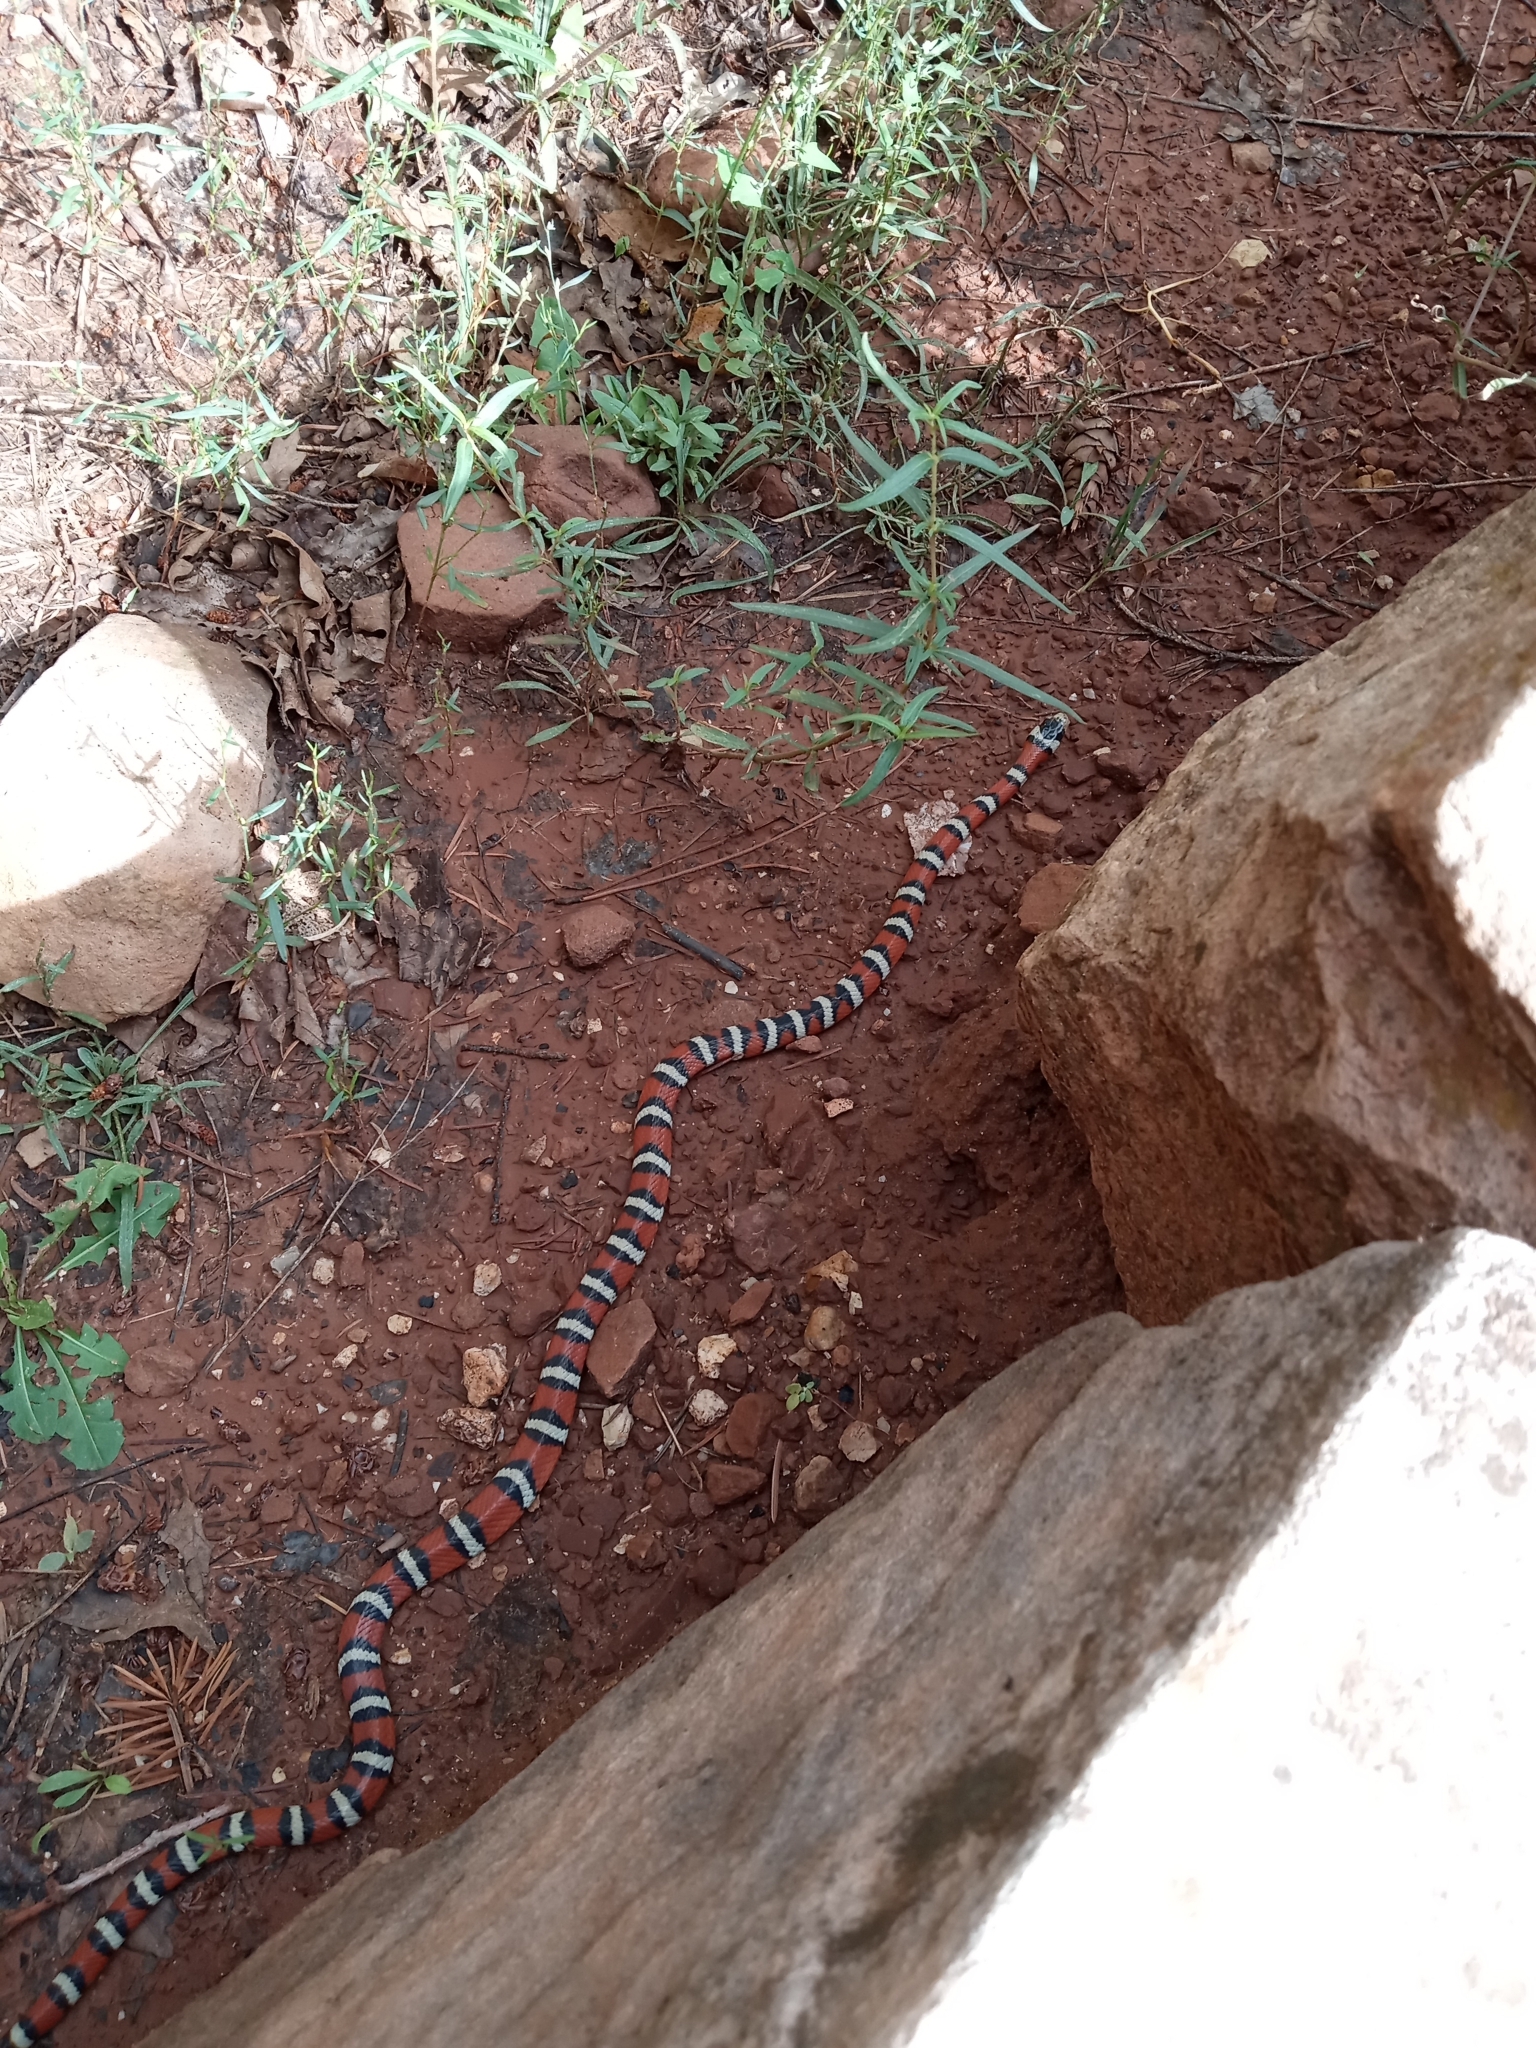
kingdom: Animalia
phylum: Chordata
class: Squamata
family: Colubridae
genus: Lampropeltis
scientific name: Lampropeltis pyromelana
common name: Sonoran mountain kingsnake
